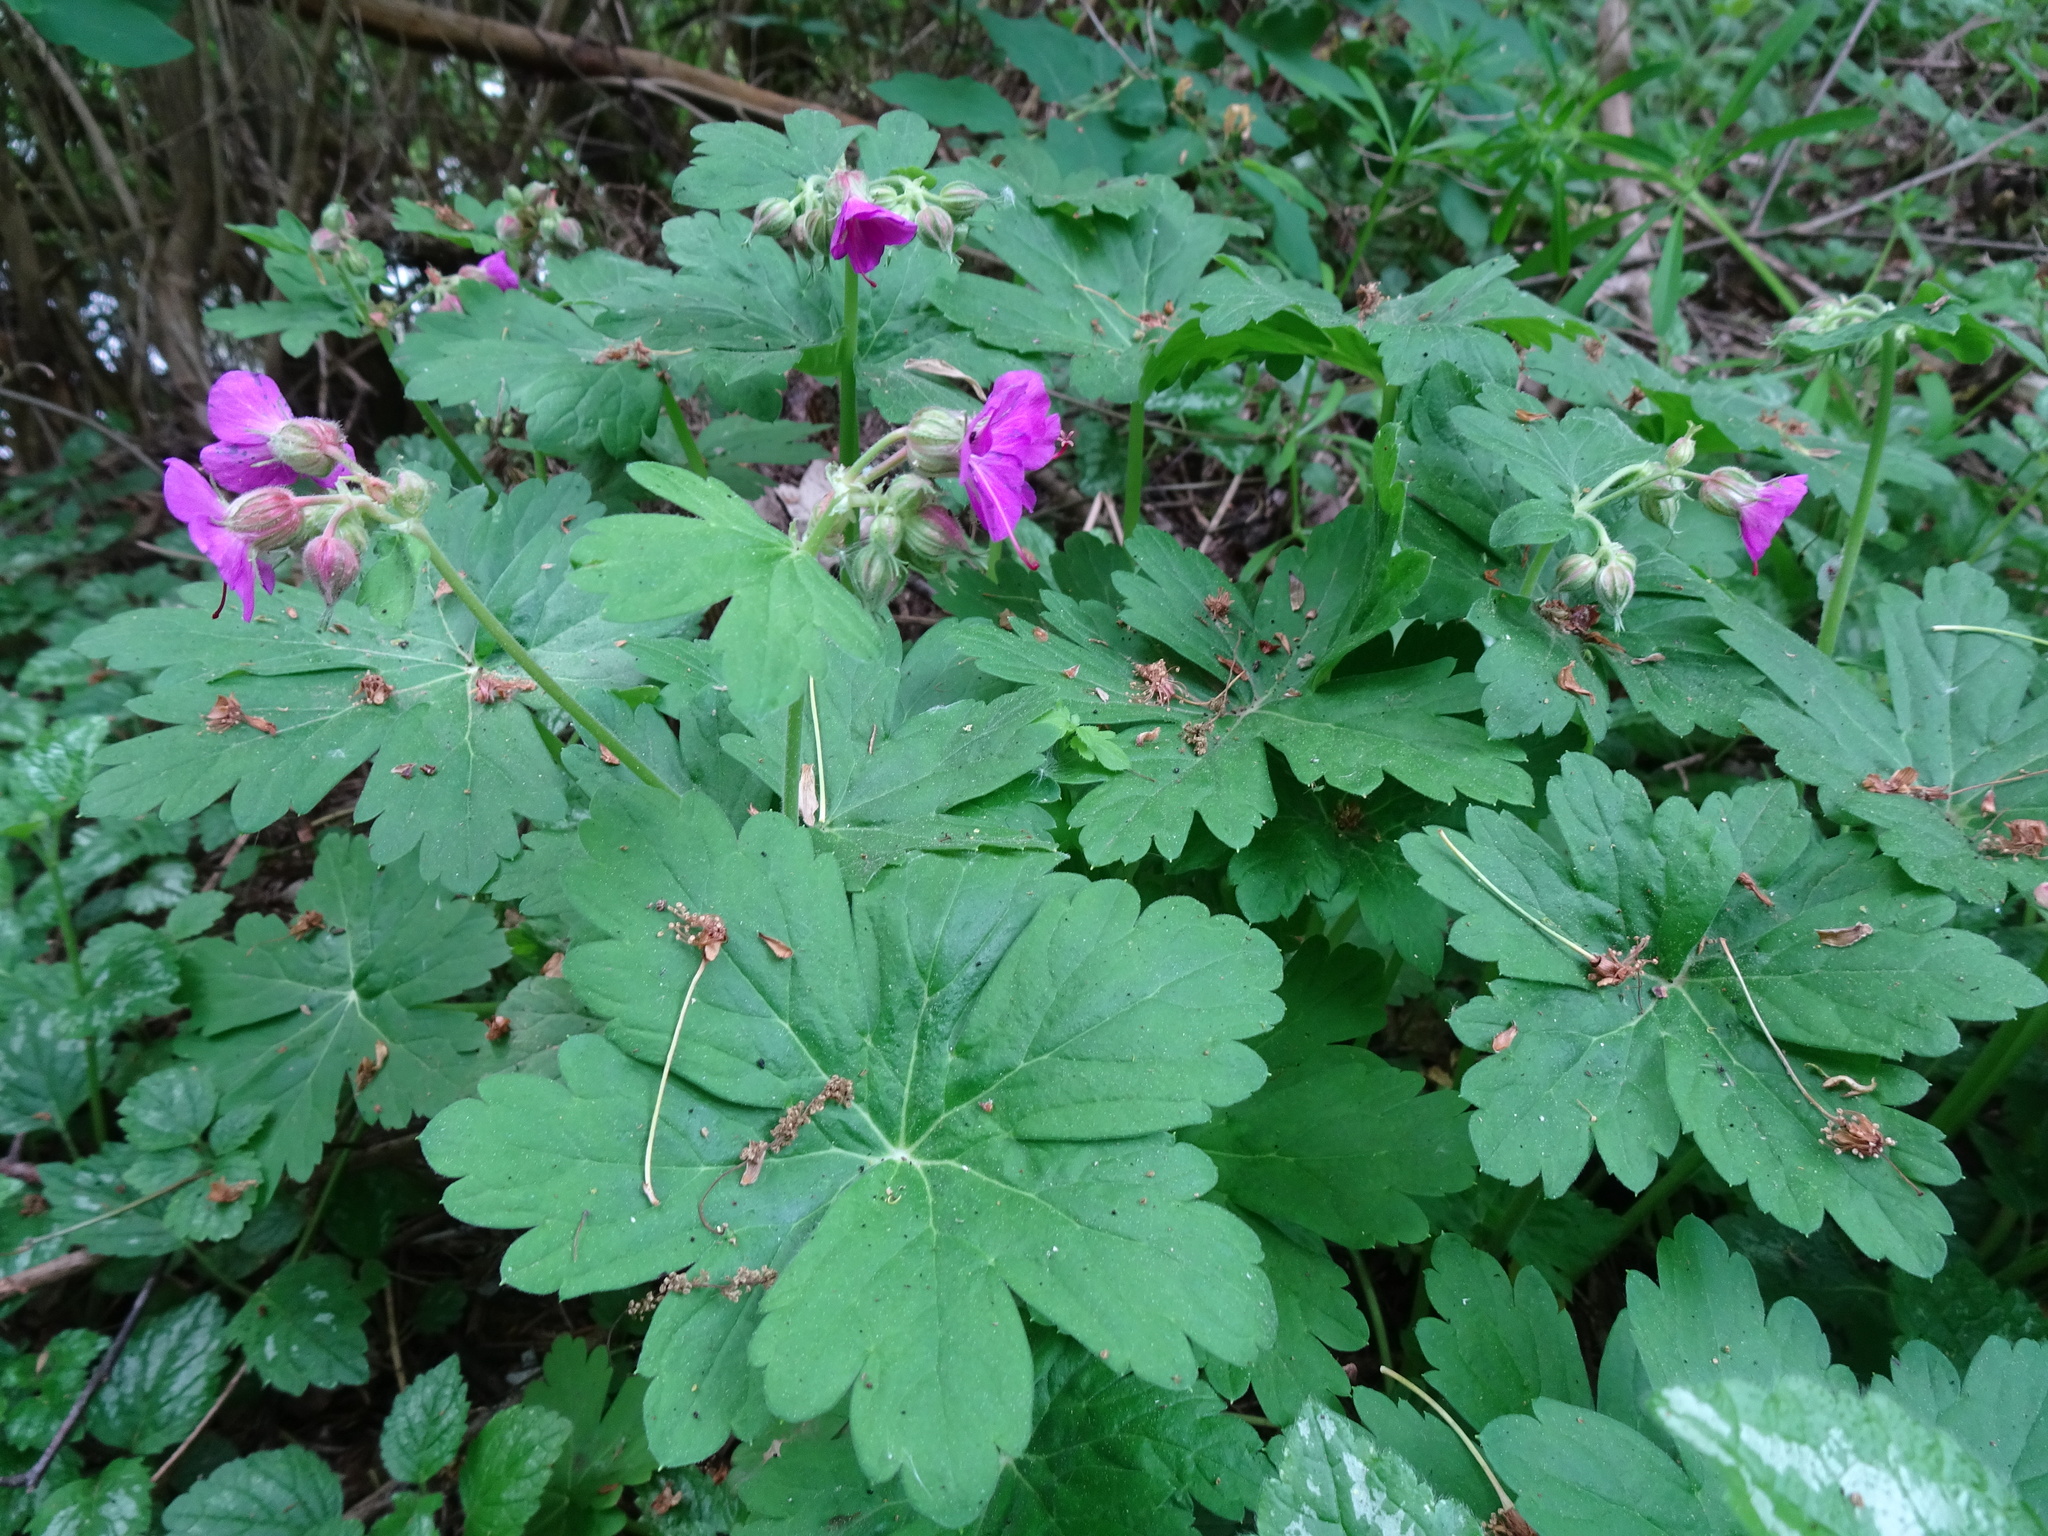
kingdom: Plantae
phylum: Tracheophyta
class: Magnoliopsida
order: Geraniales
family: Geraniaceae
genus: Geranium
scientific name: Geranium macrorrhizum
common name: Rock crane's-bill
